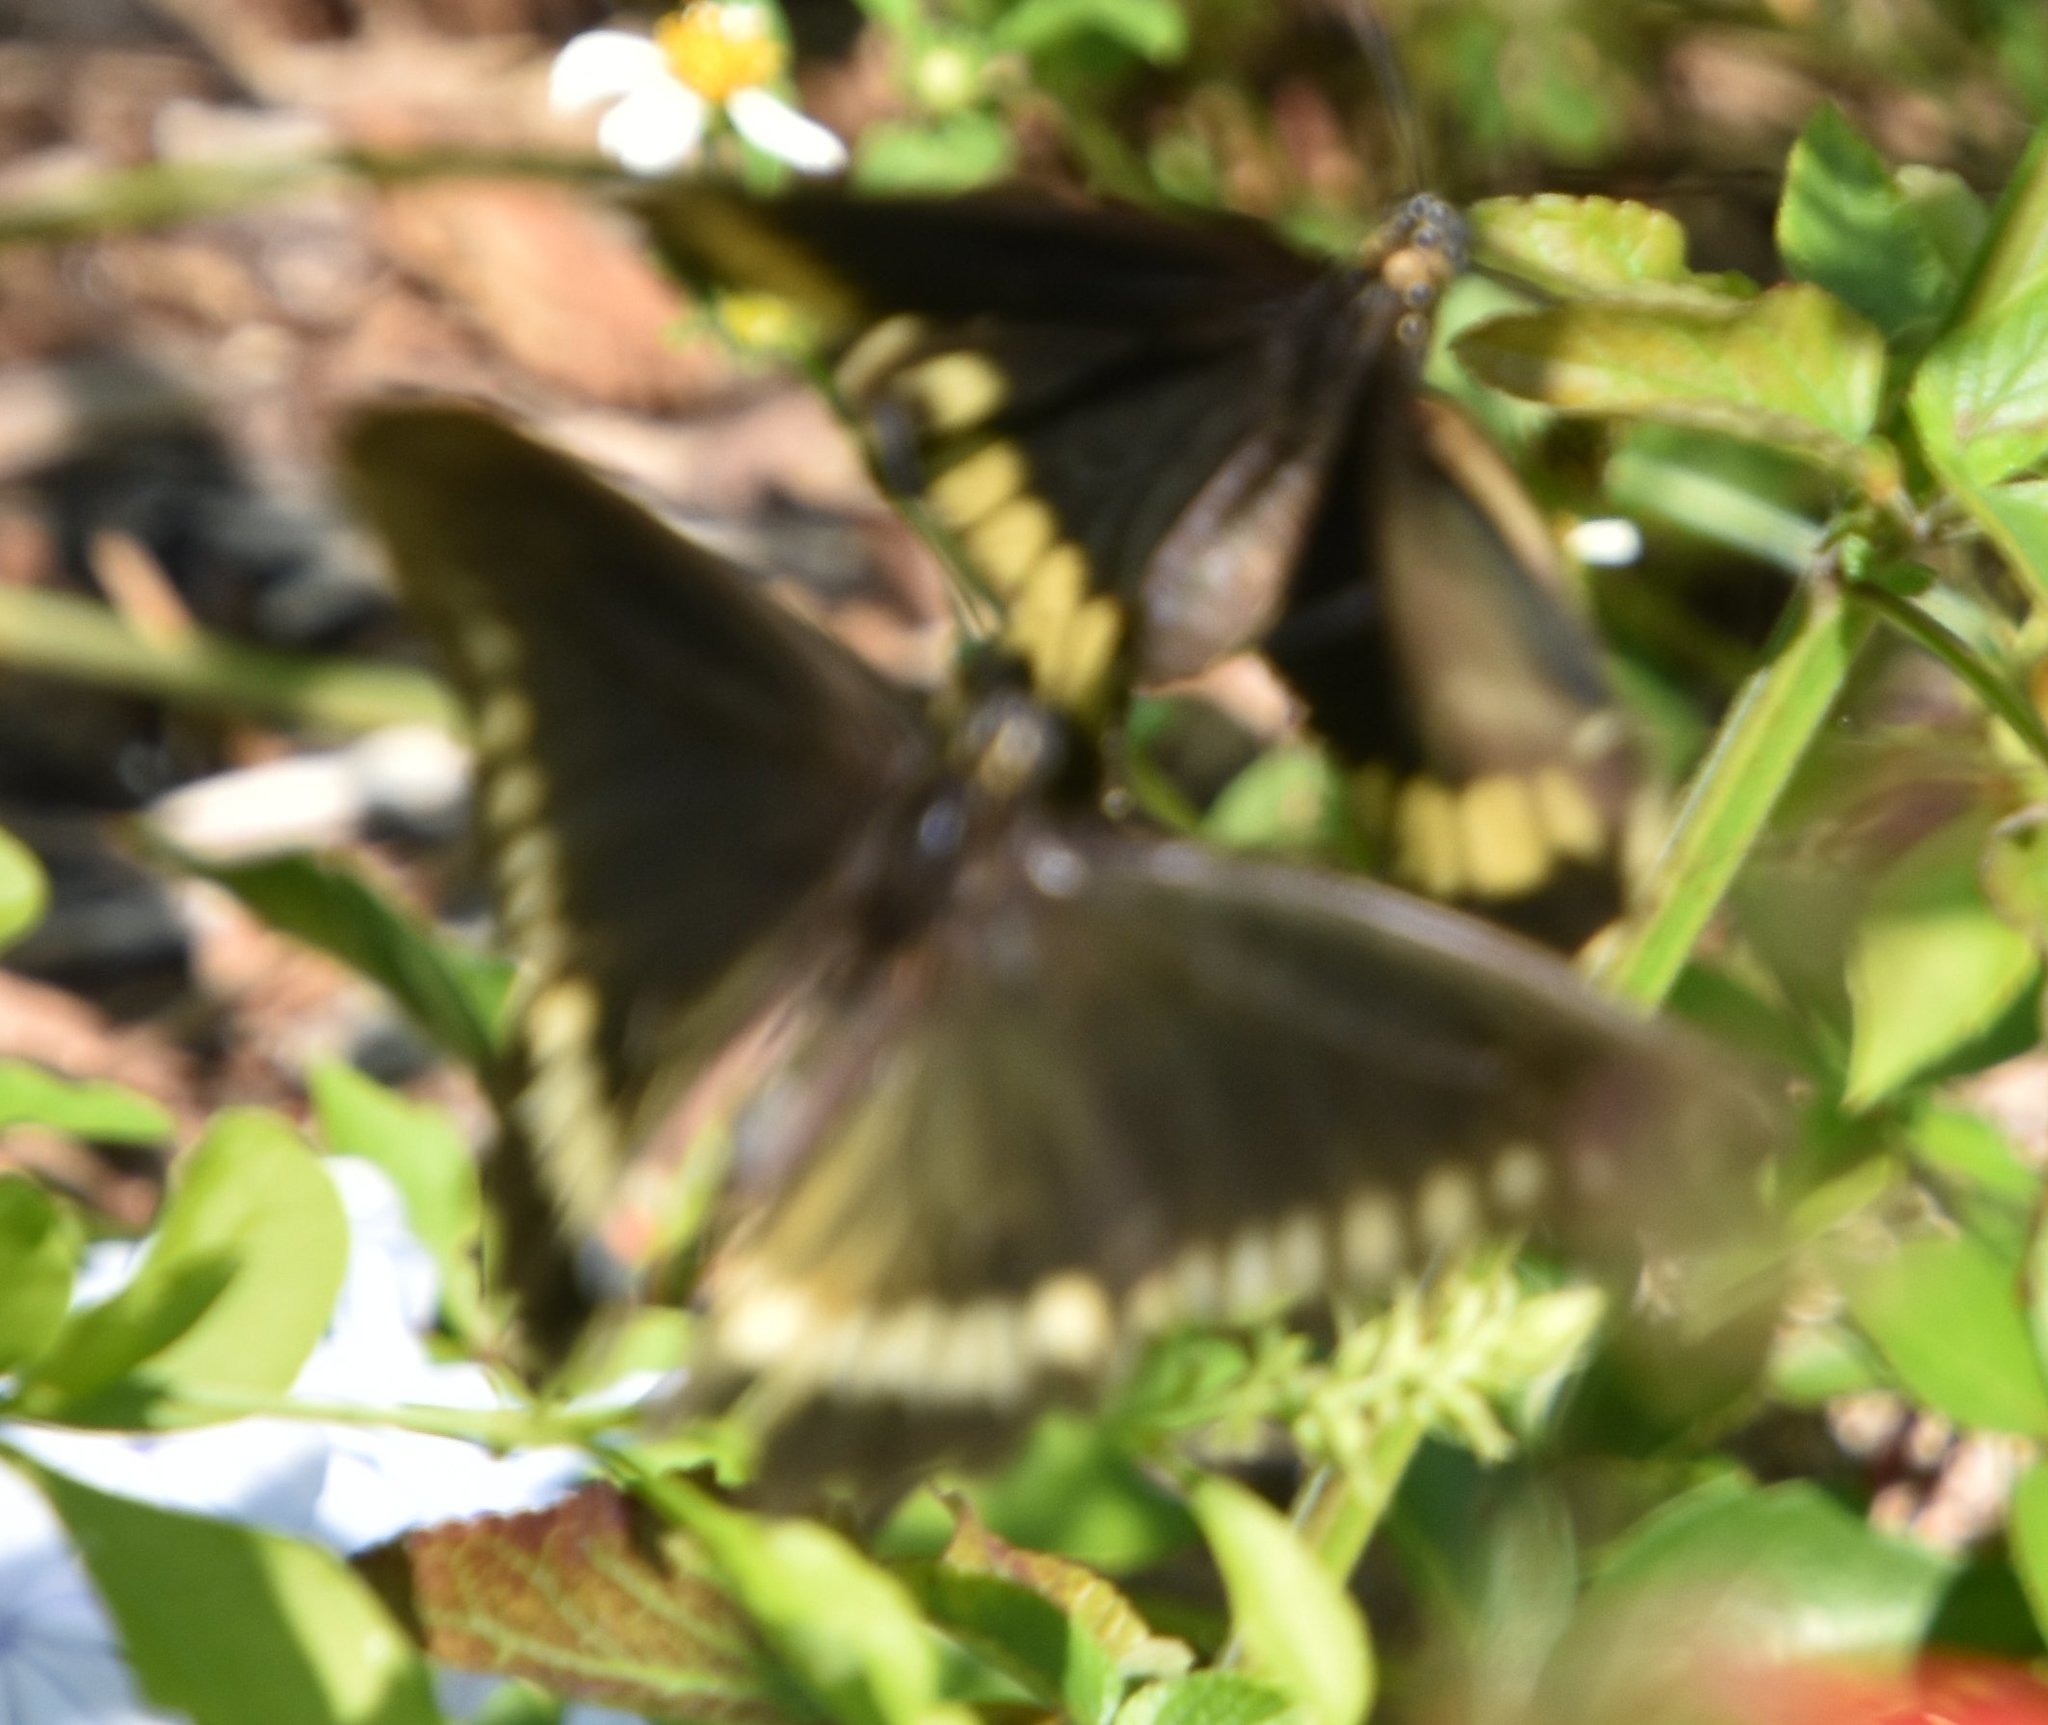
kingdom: Animalia
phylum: Arthropoda
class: Insecta
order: Lepidoptera
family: Papilionidae
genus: Battus
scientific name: Battus polydamas
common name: Polydamas swallowtail
